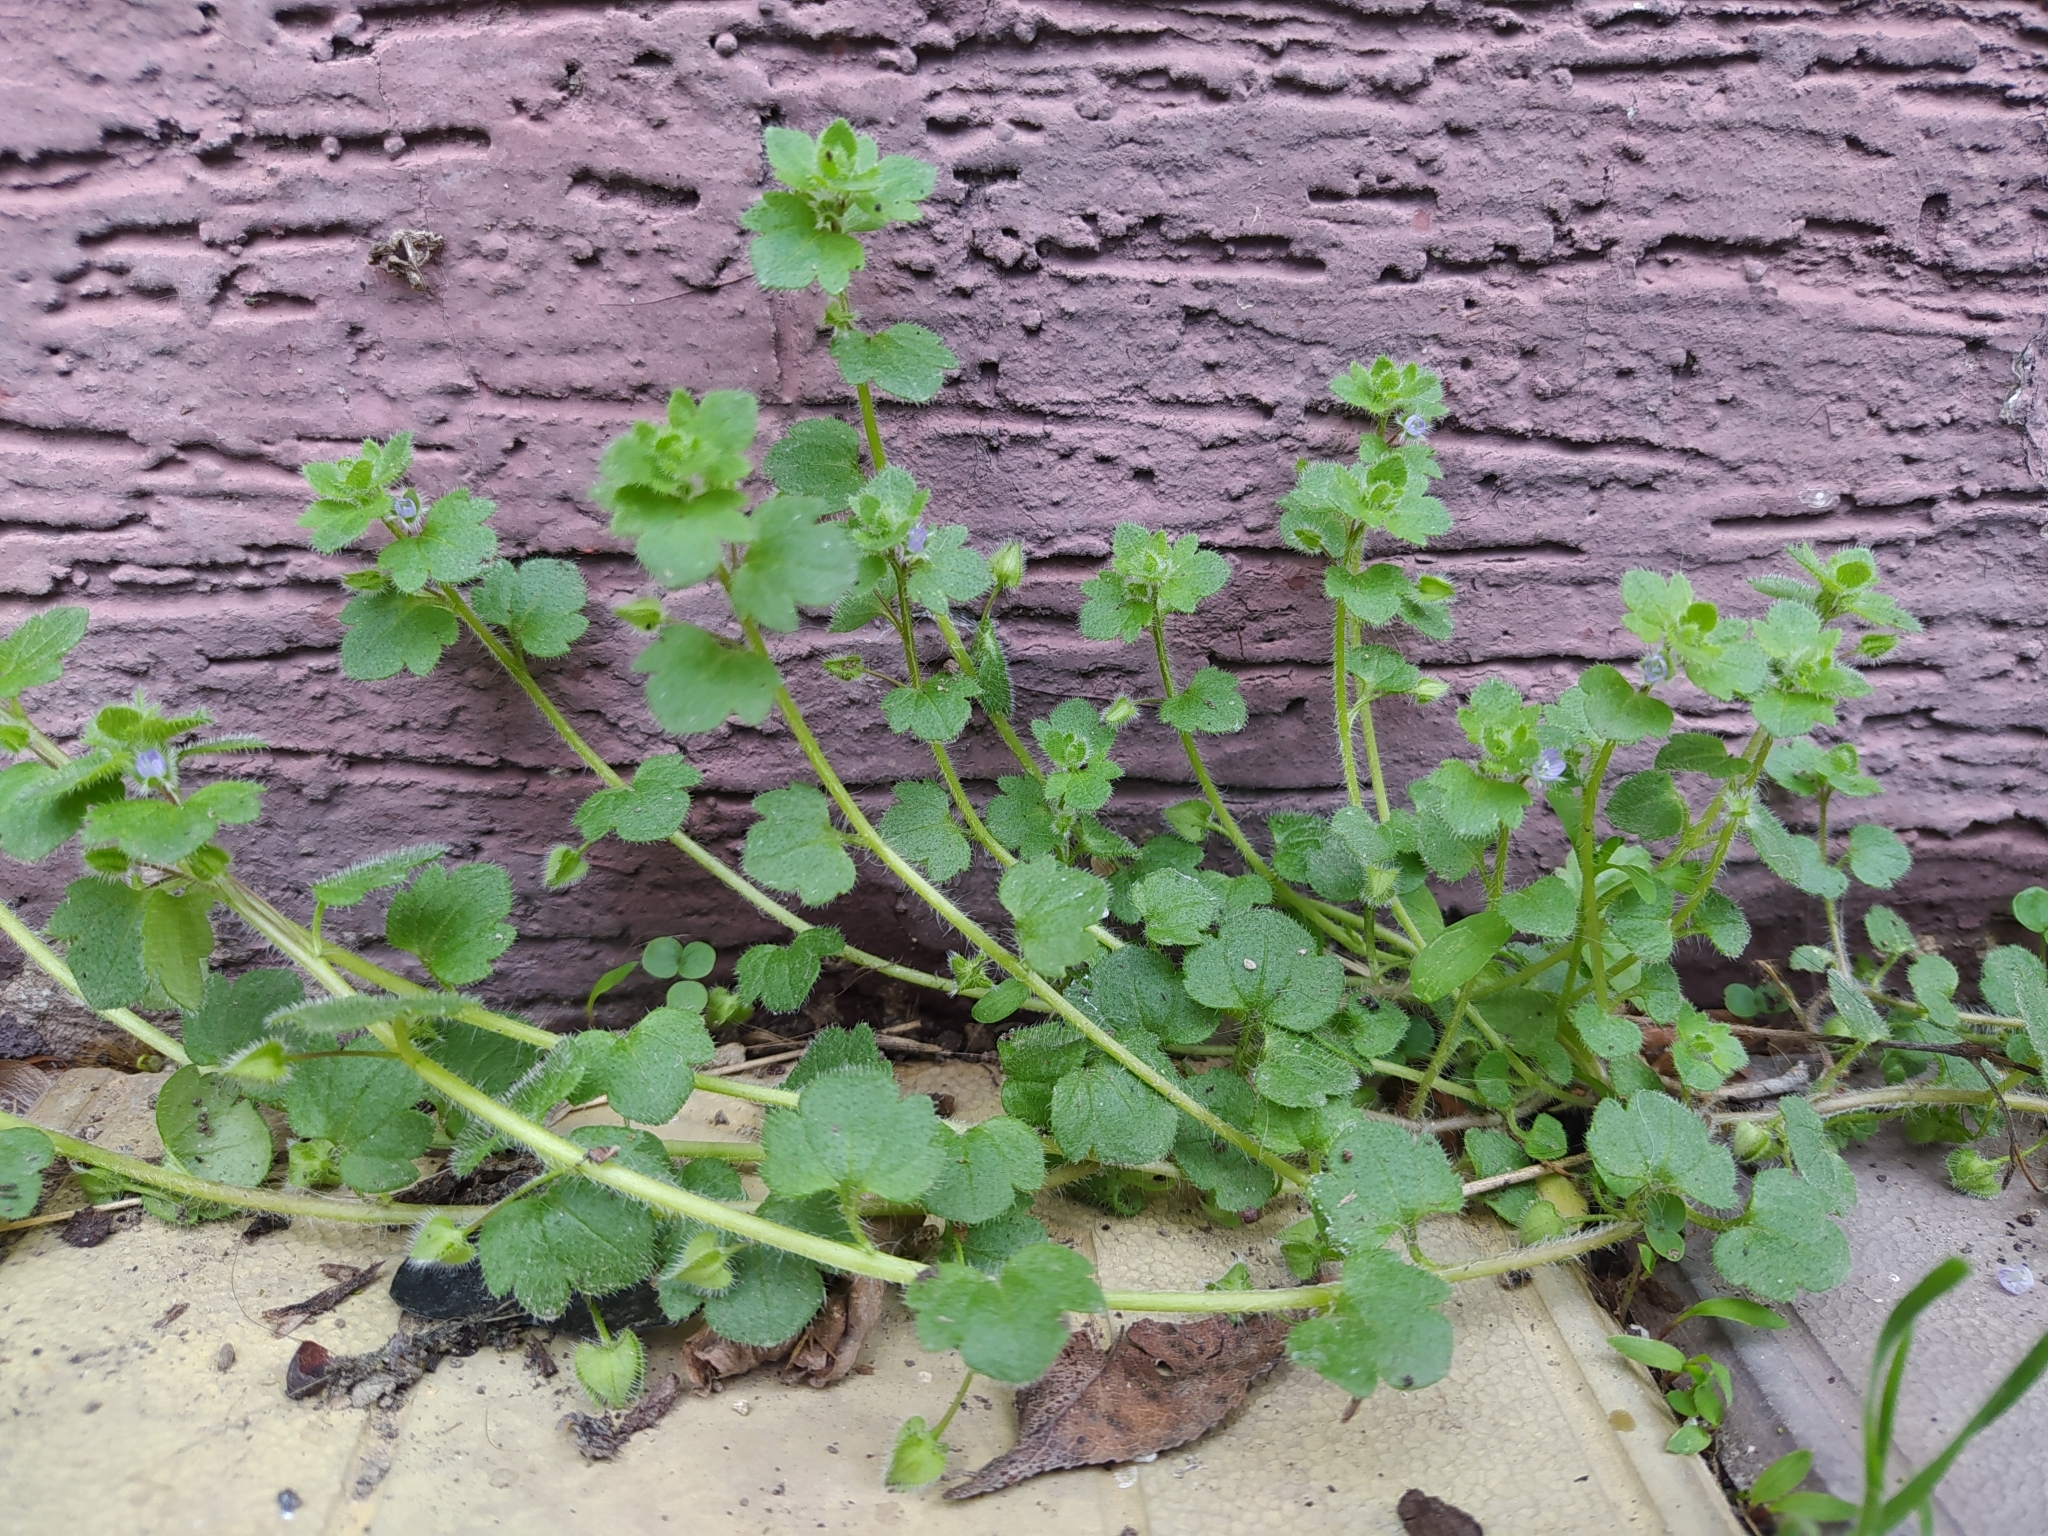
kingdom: Plantae
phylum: Tracheophyta
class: Magnoliopsida
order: Lamiales
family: Plantaginaceae
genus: Veronica
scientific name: Veronica hederifolia
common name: Ivy-leaved speedwell
